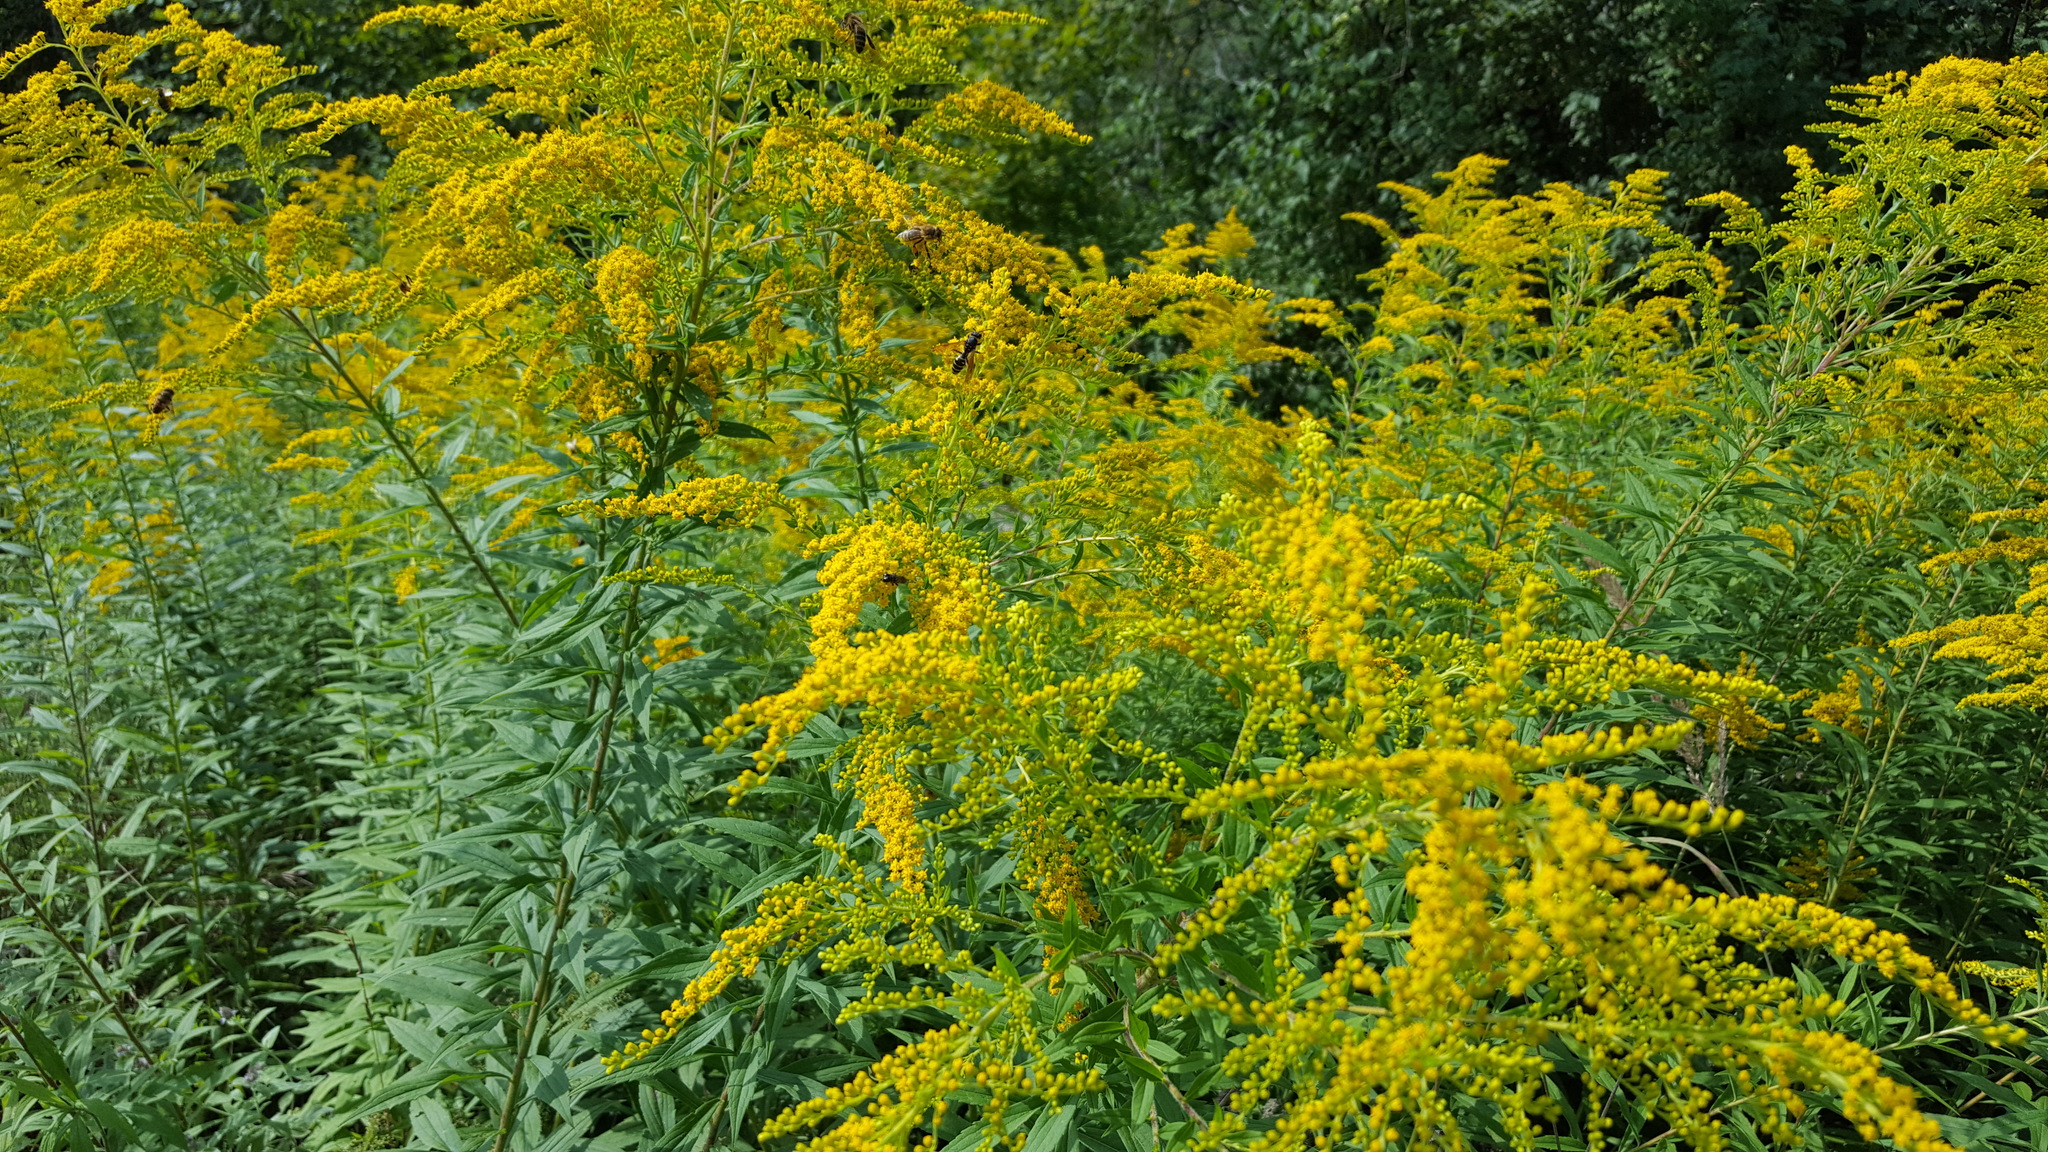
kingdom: Plantae
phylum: Tracheophyta
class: Magnoliopsida
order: Asterales
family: Asteraceae
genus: Solidago
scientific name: Solidago canadensis
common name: Canada goldenrod
